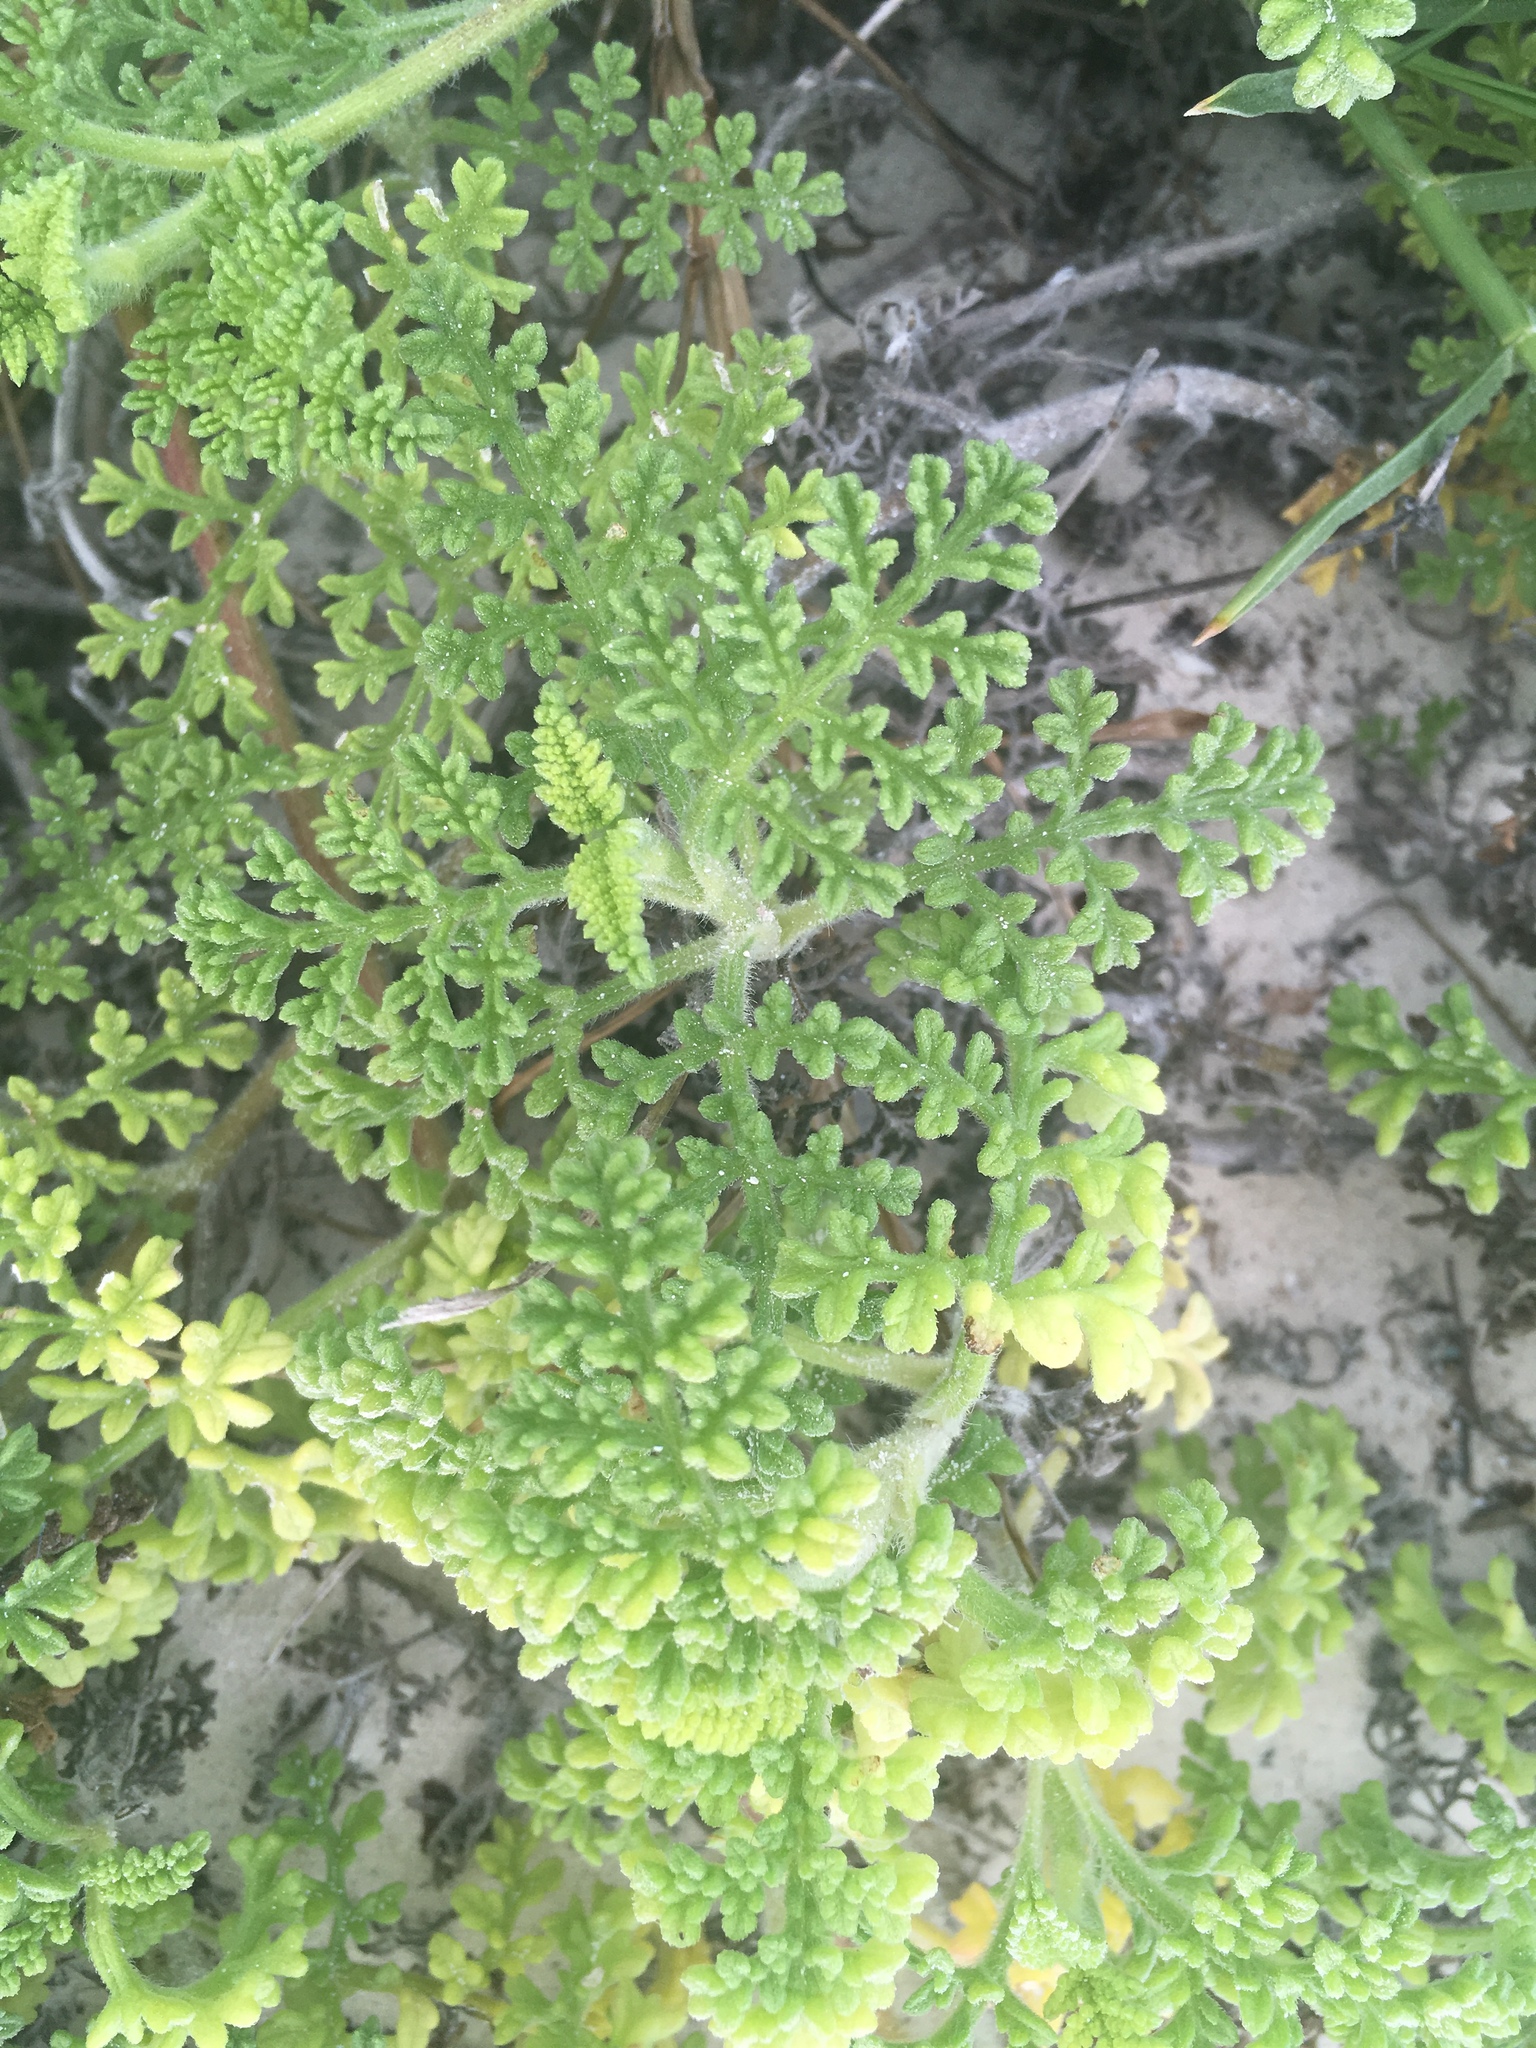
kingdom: Plantae
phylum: Tracheophyta
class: Magnoliopsida
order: Asterales
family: Asteraceae
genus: Ambrosia
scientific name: Ambrosia hispida
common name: Coastal ragweed
